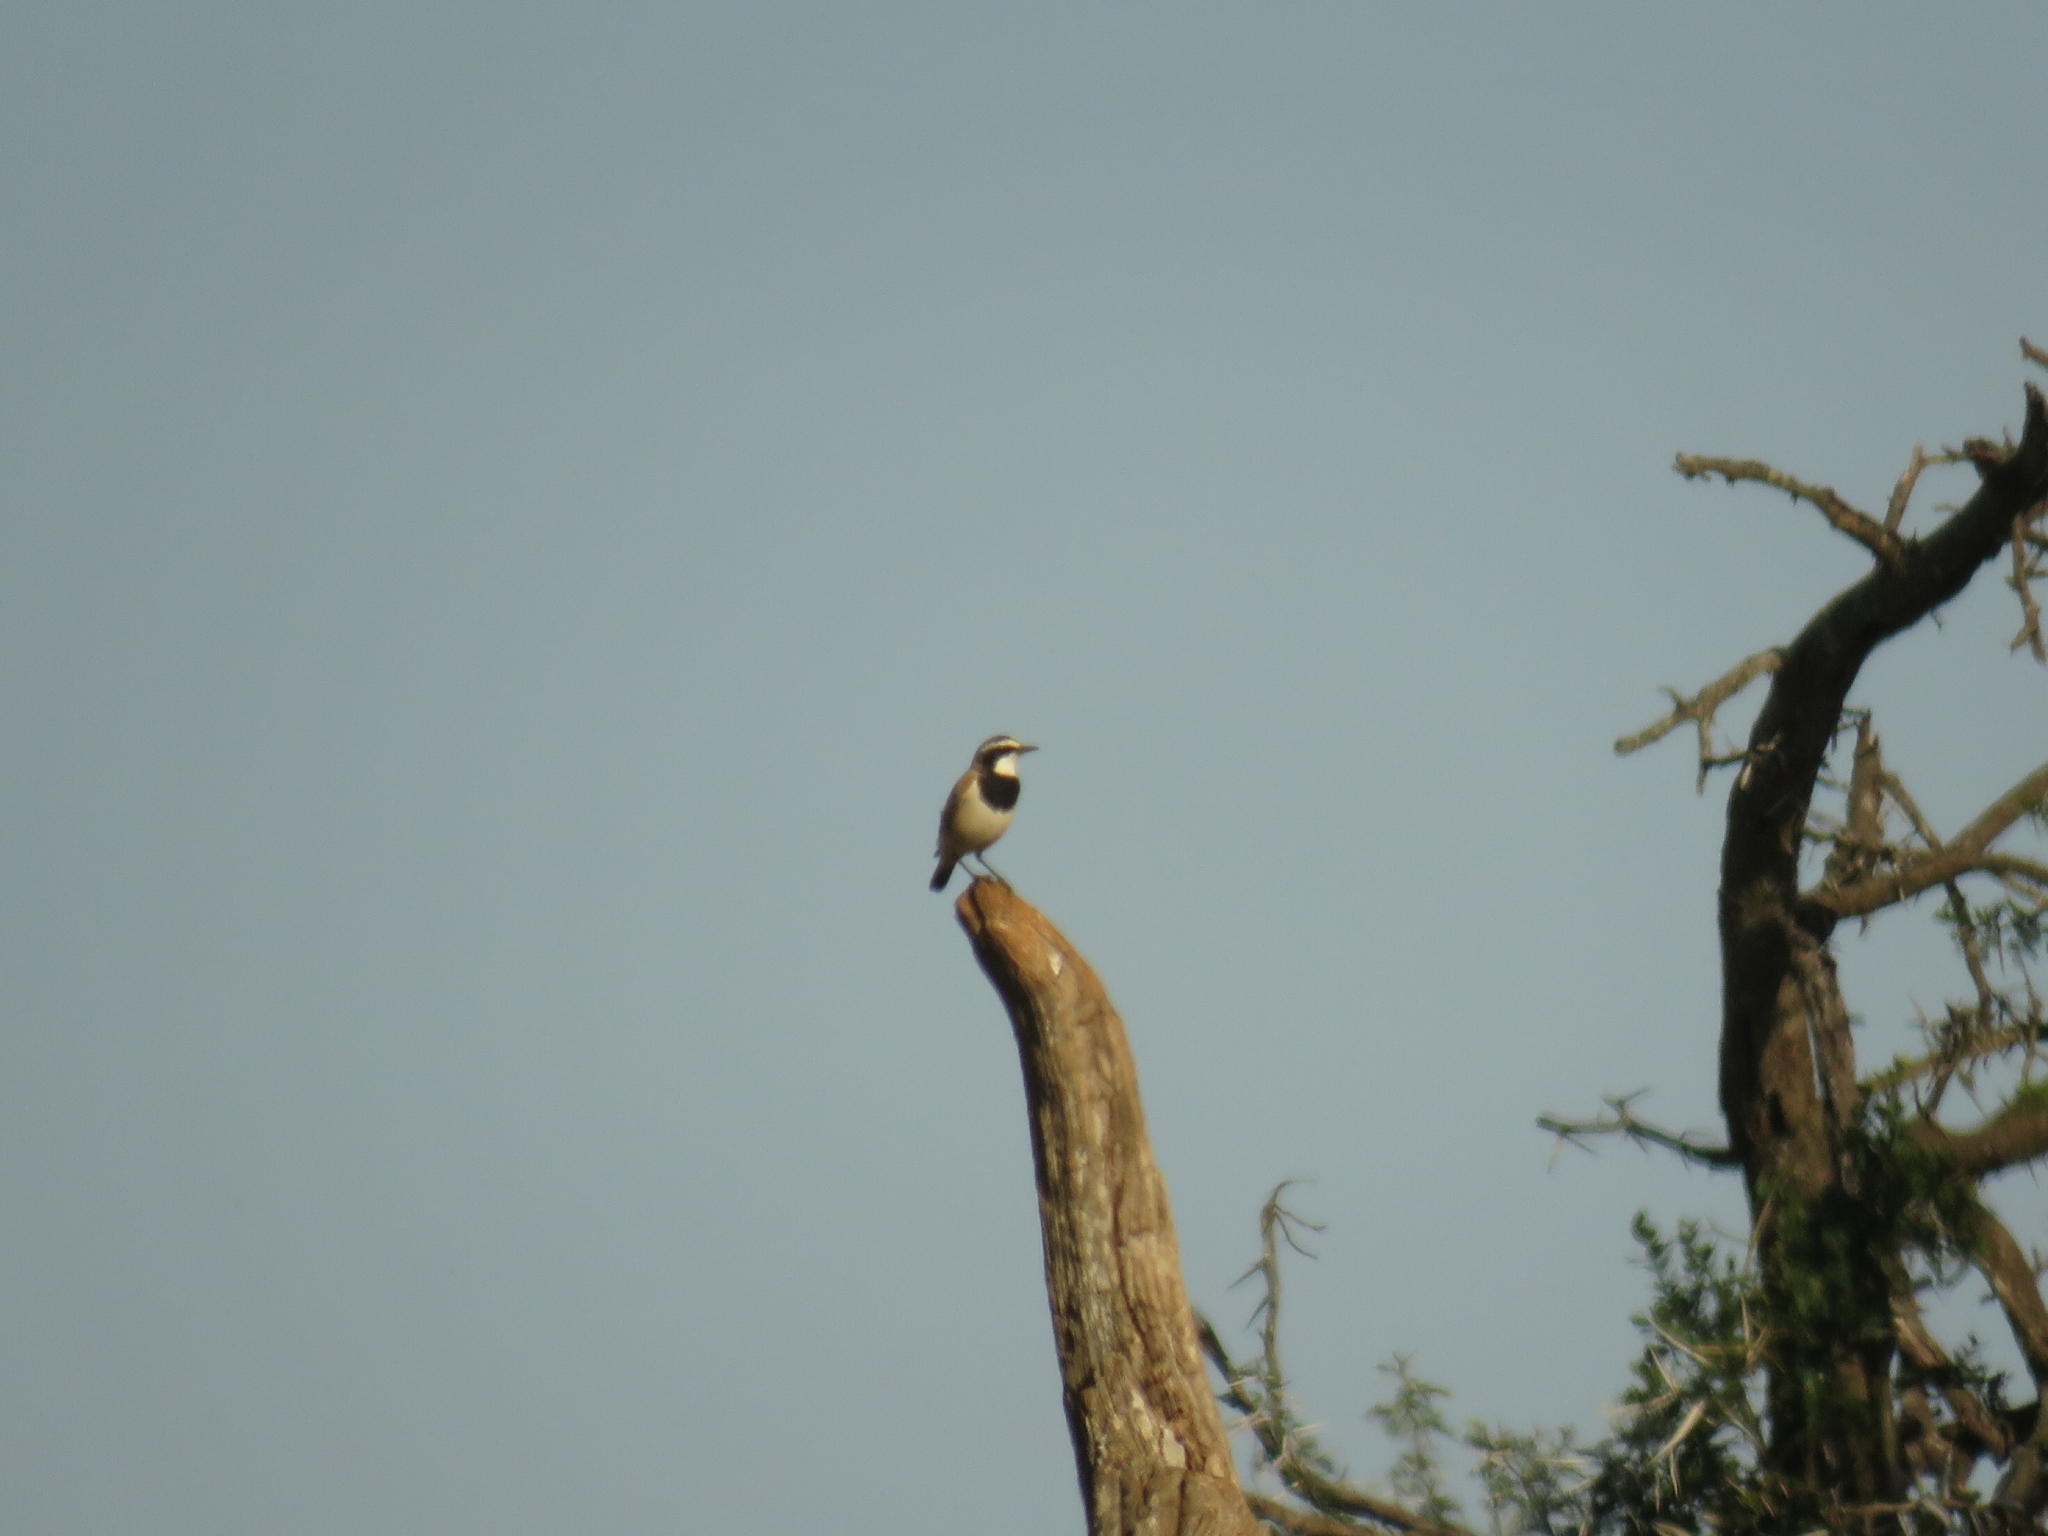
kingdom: Animalia
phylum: Chordata
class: Aves
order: Passeriformes
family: Muscicapidae
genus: Oenanthe
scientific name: Oenanthe pileata
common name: Capped wheatear
